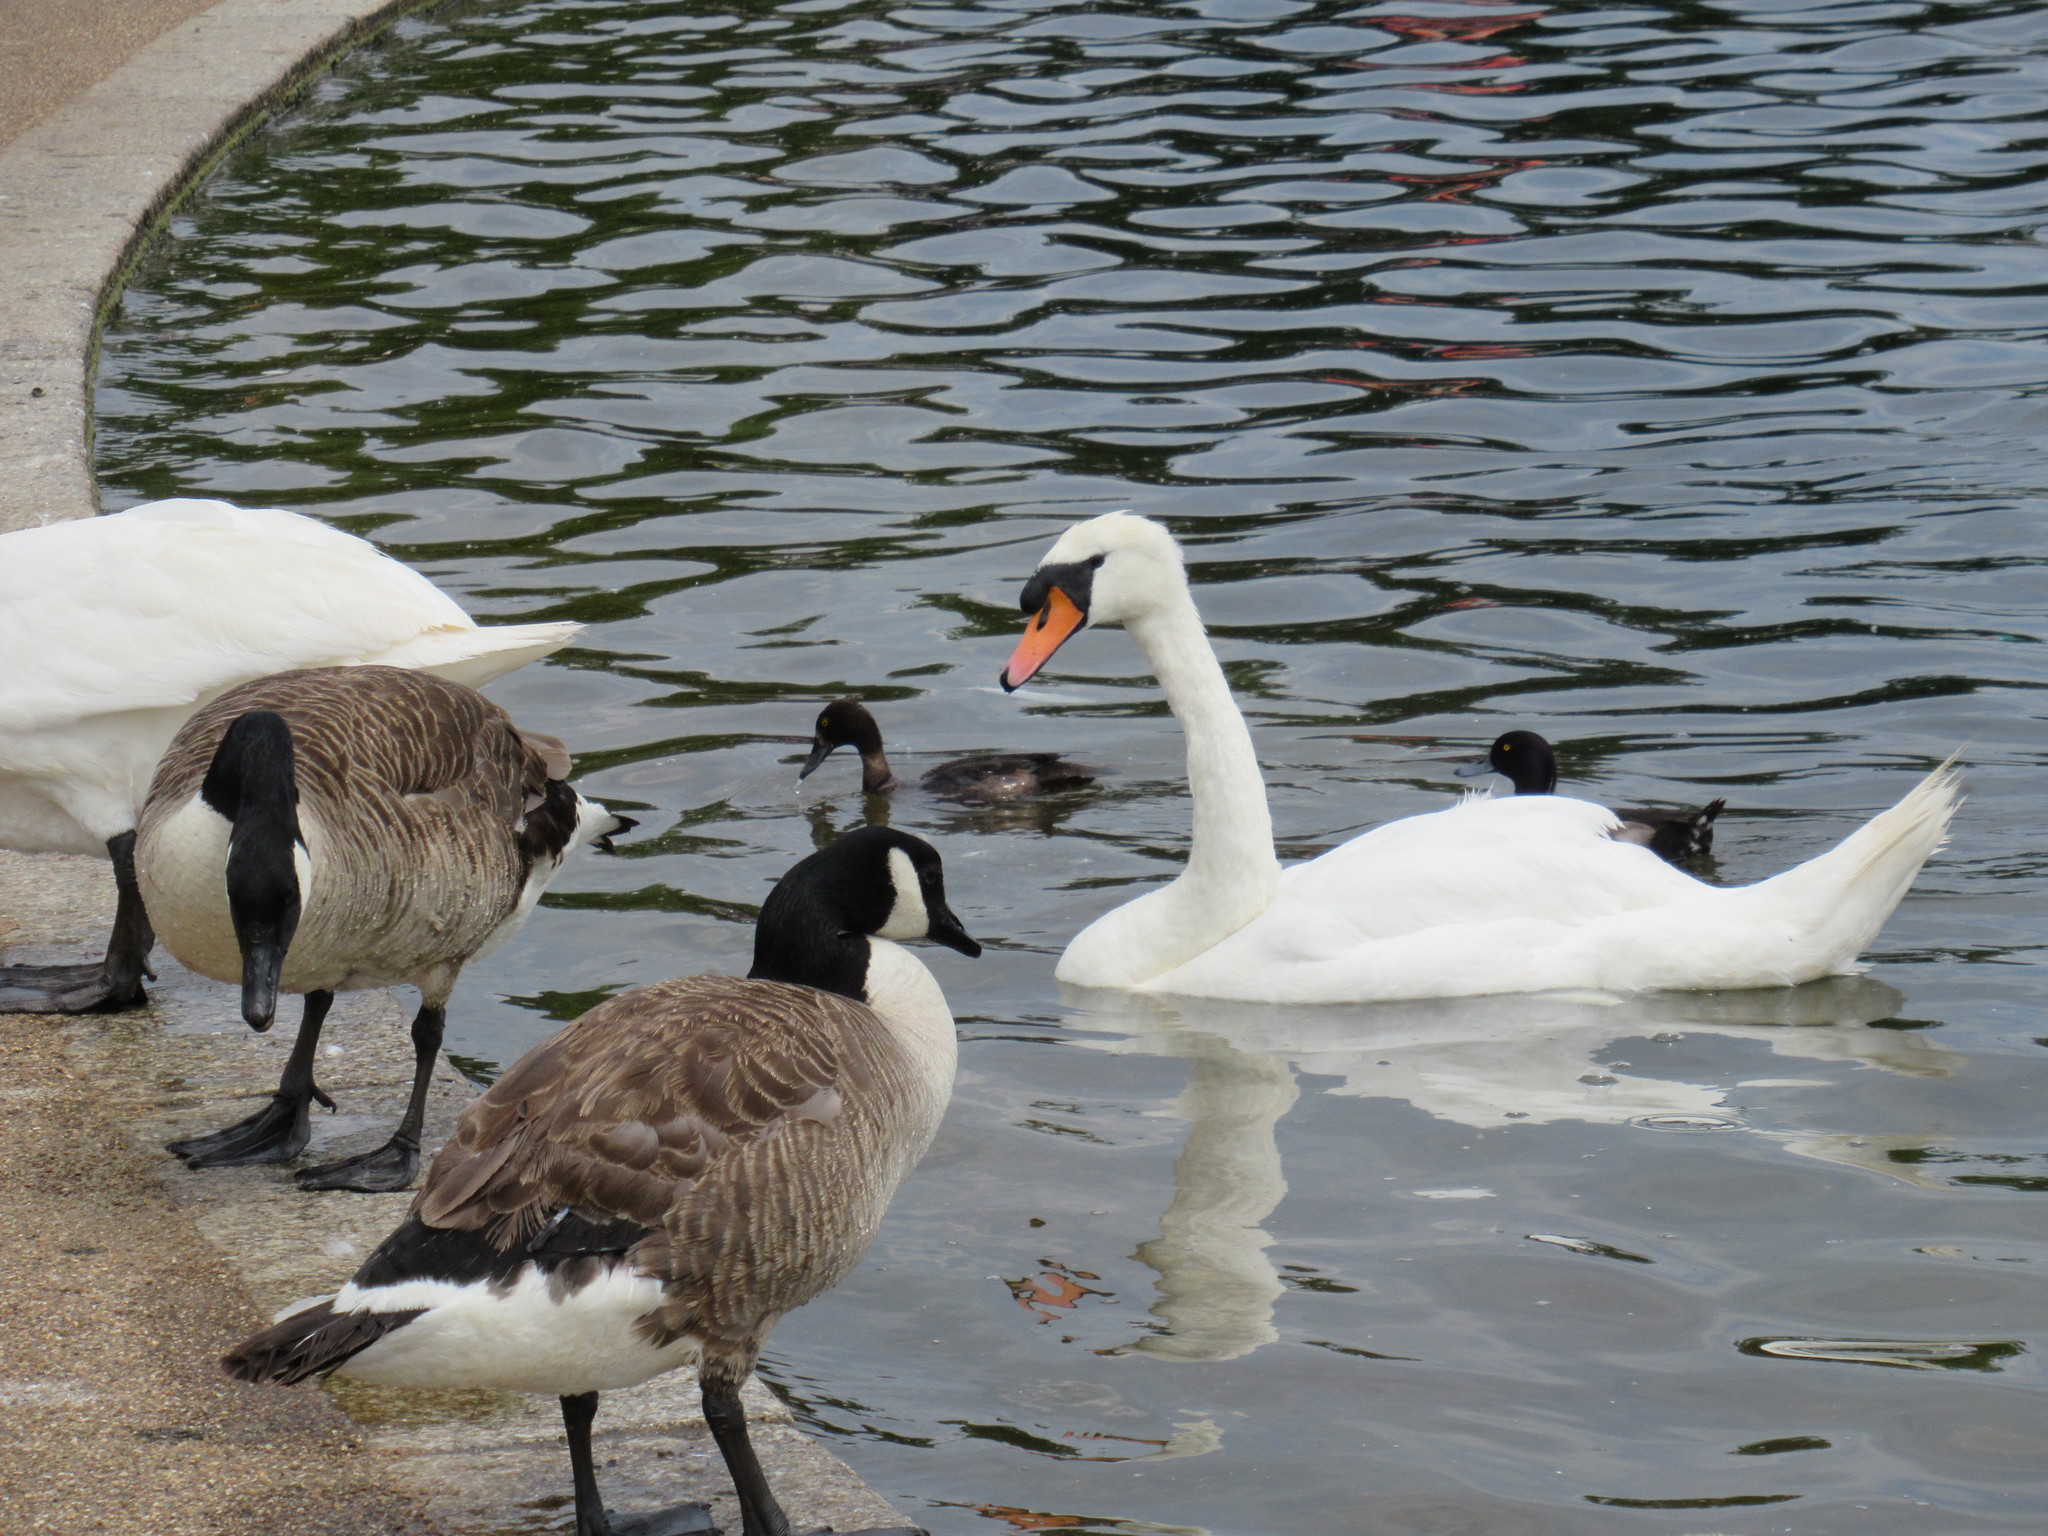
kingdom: Animalia
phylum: Chordata
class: Aves
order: Anseriformes
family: Anatidae
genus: Branta
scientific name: Branta canadensis
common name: Canada goose
